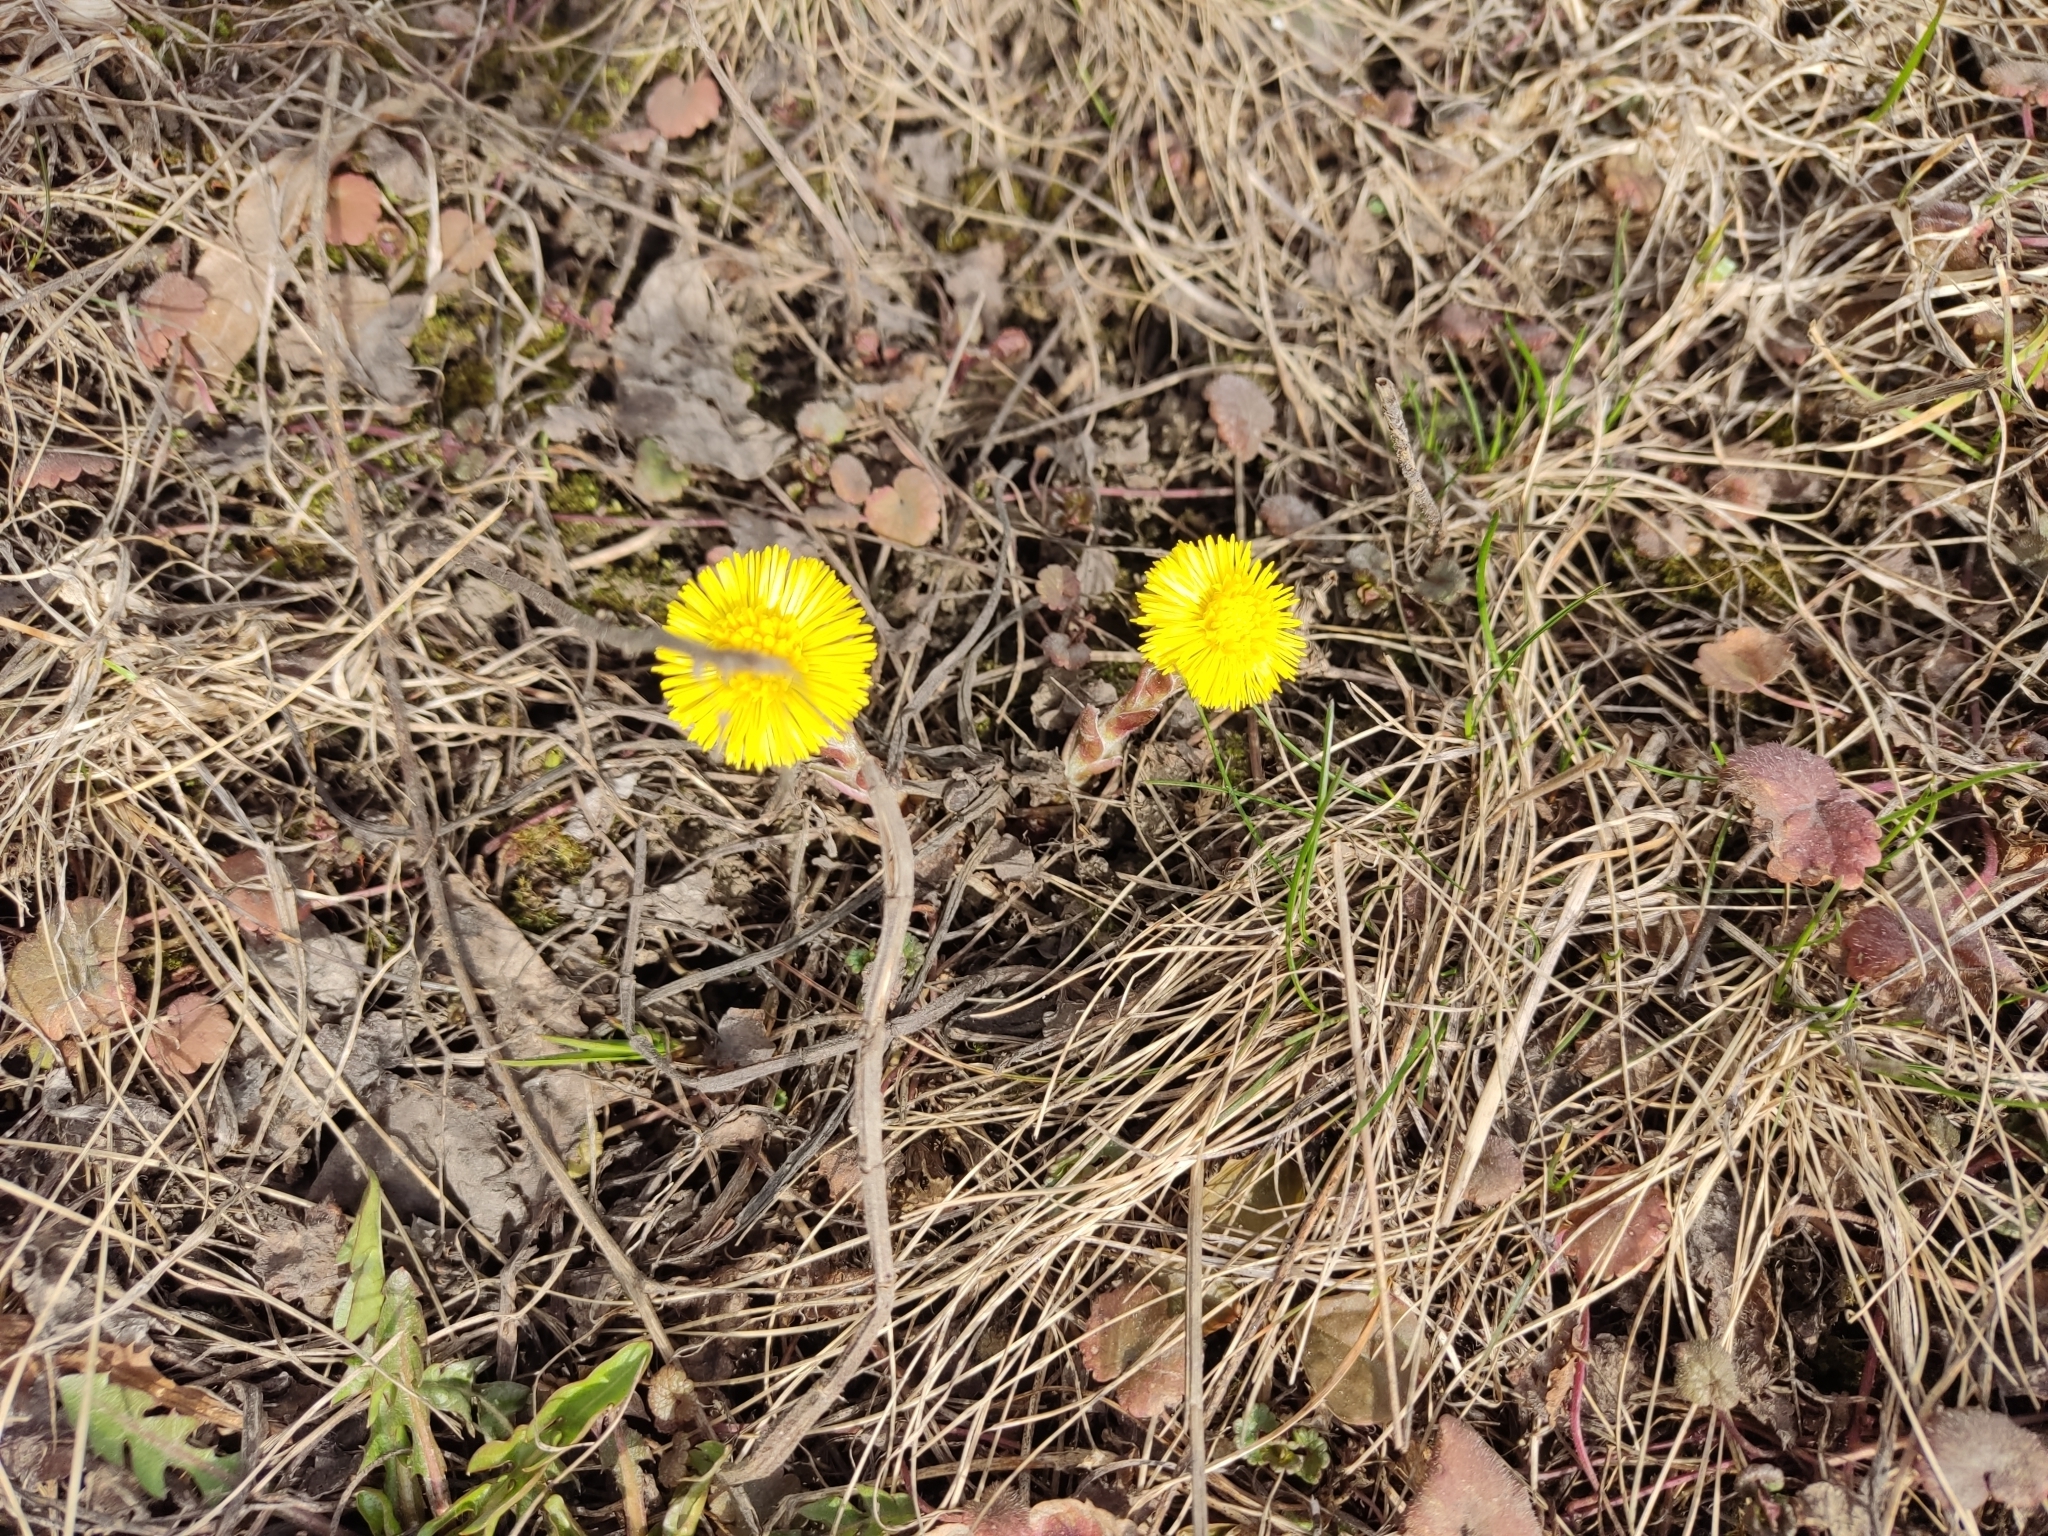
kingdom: Plantae
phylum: Tracheophyta
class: Magnoliopsida
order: Asterales
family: Asteraceae
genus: Tussilago
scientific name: Tussilago farfara
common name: Coltsfoot
